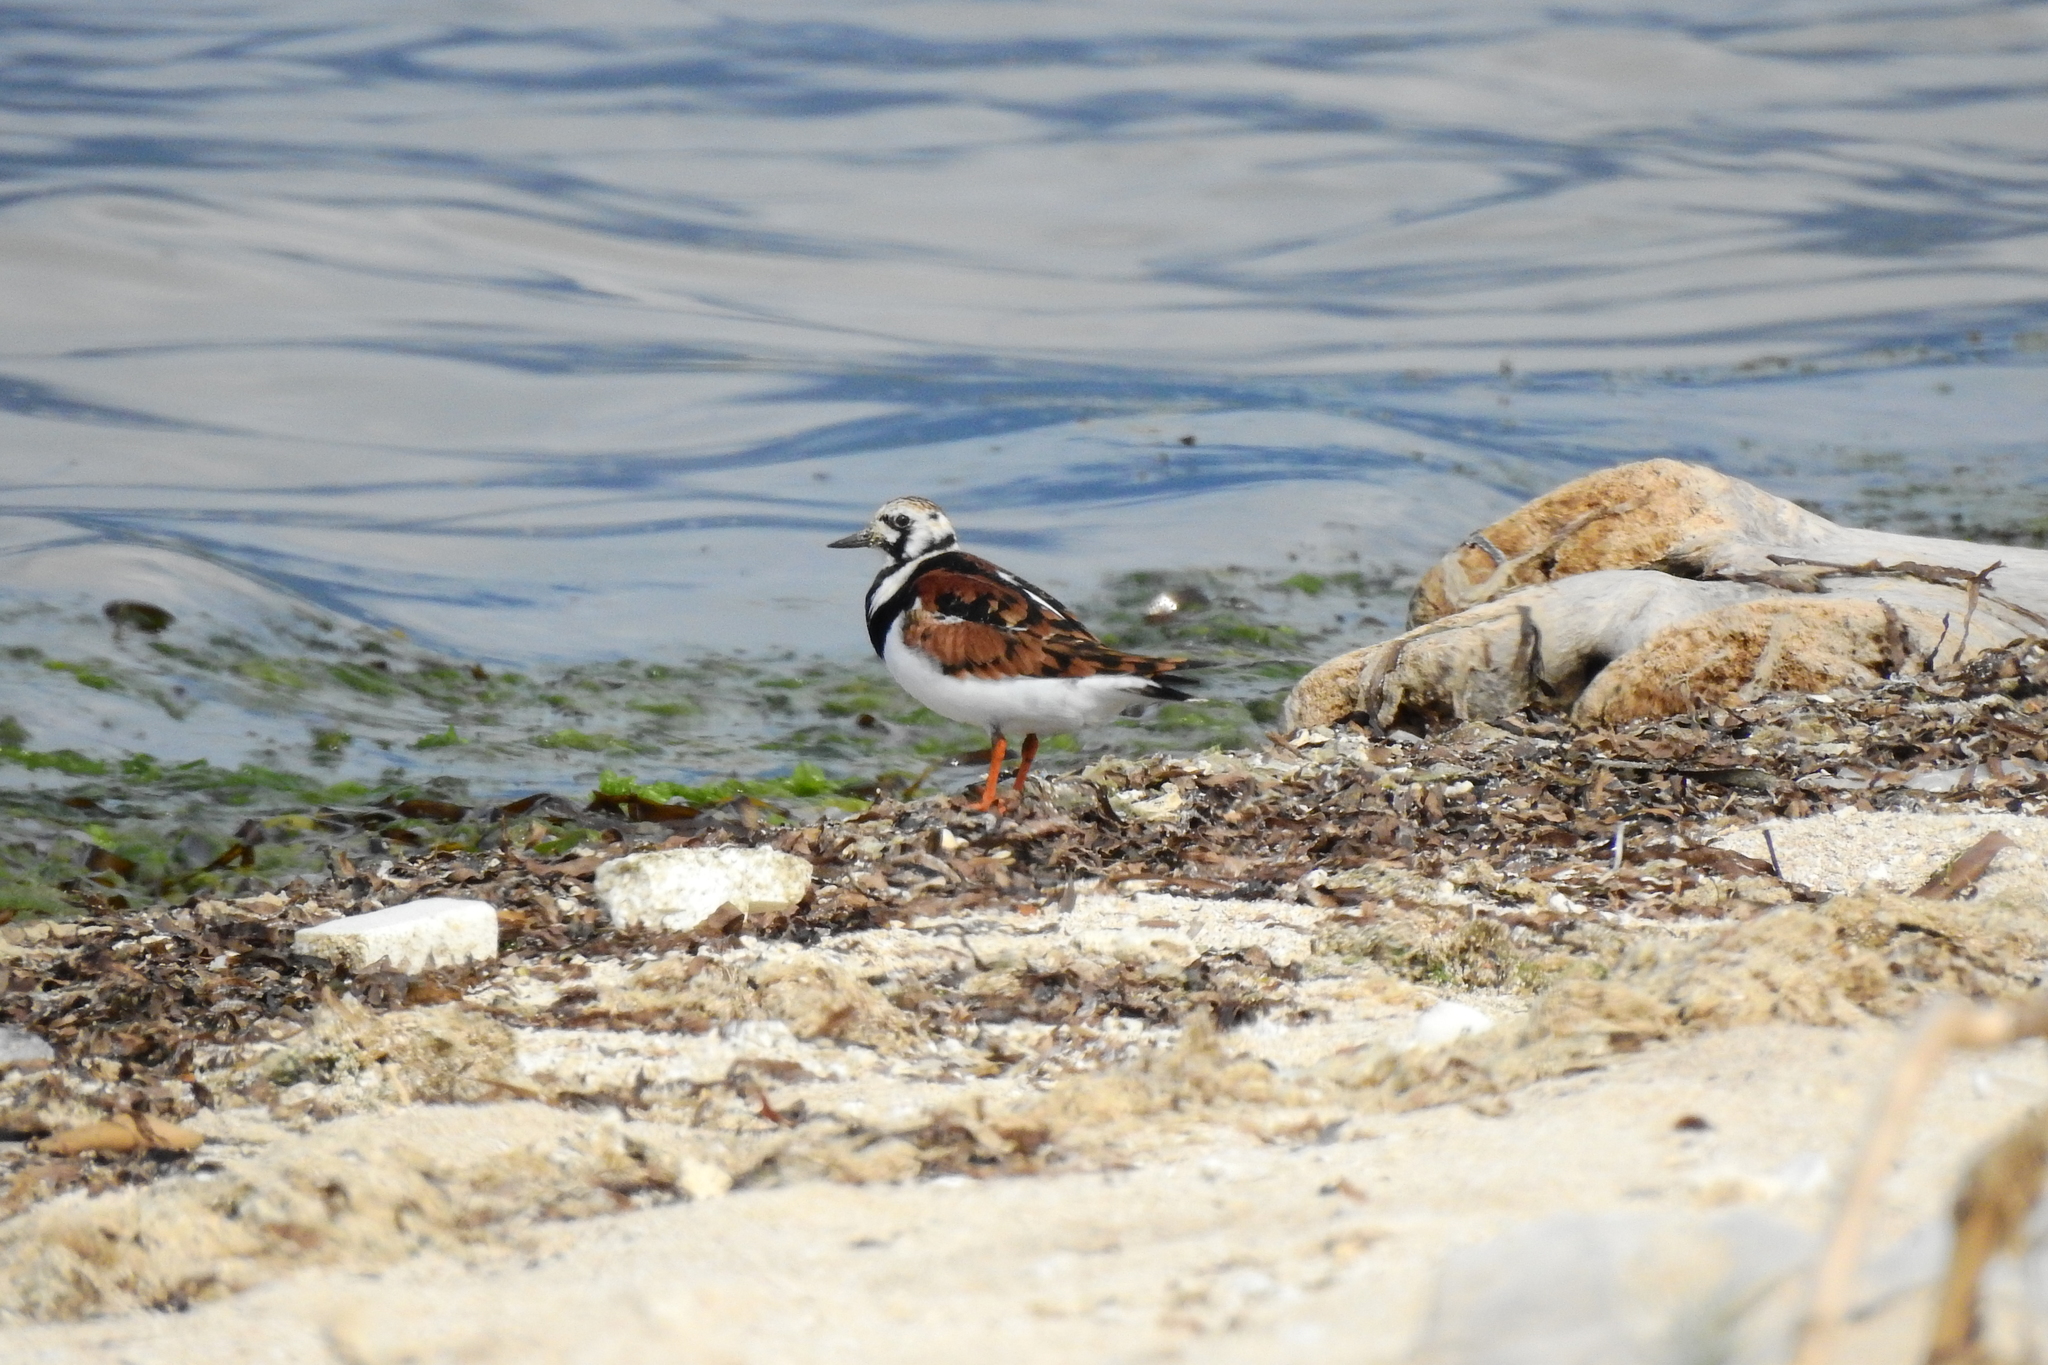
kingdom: Animalia
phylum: Chordata
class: Aves
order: Charadriiformes
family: Scolopacidae
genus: Arenaria
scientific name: Arenaria interpres
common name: Ruddy turnstone
